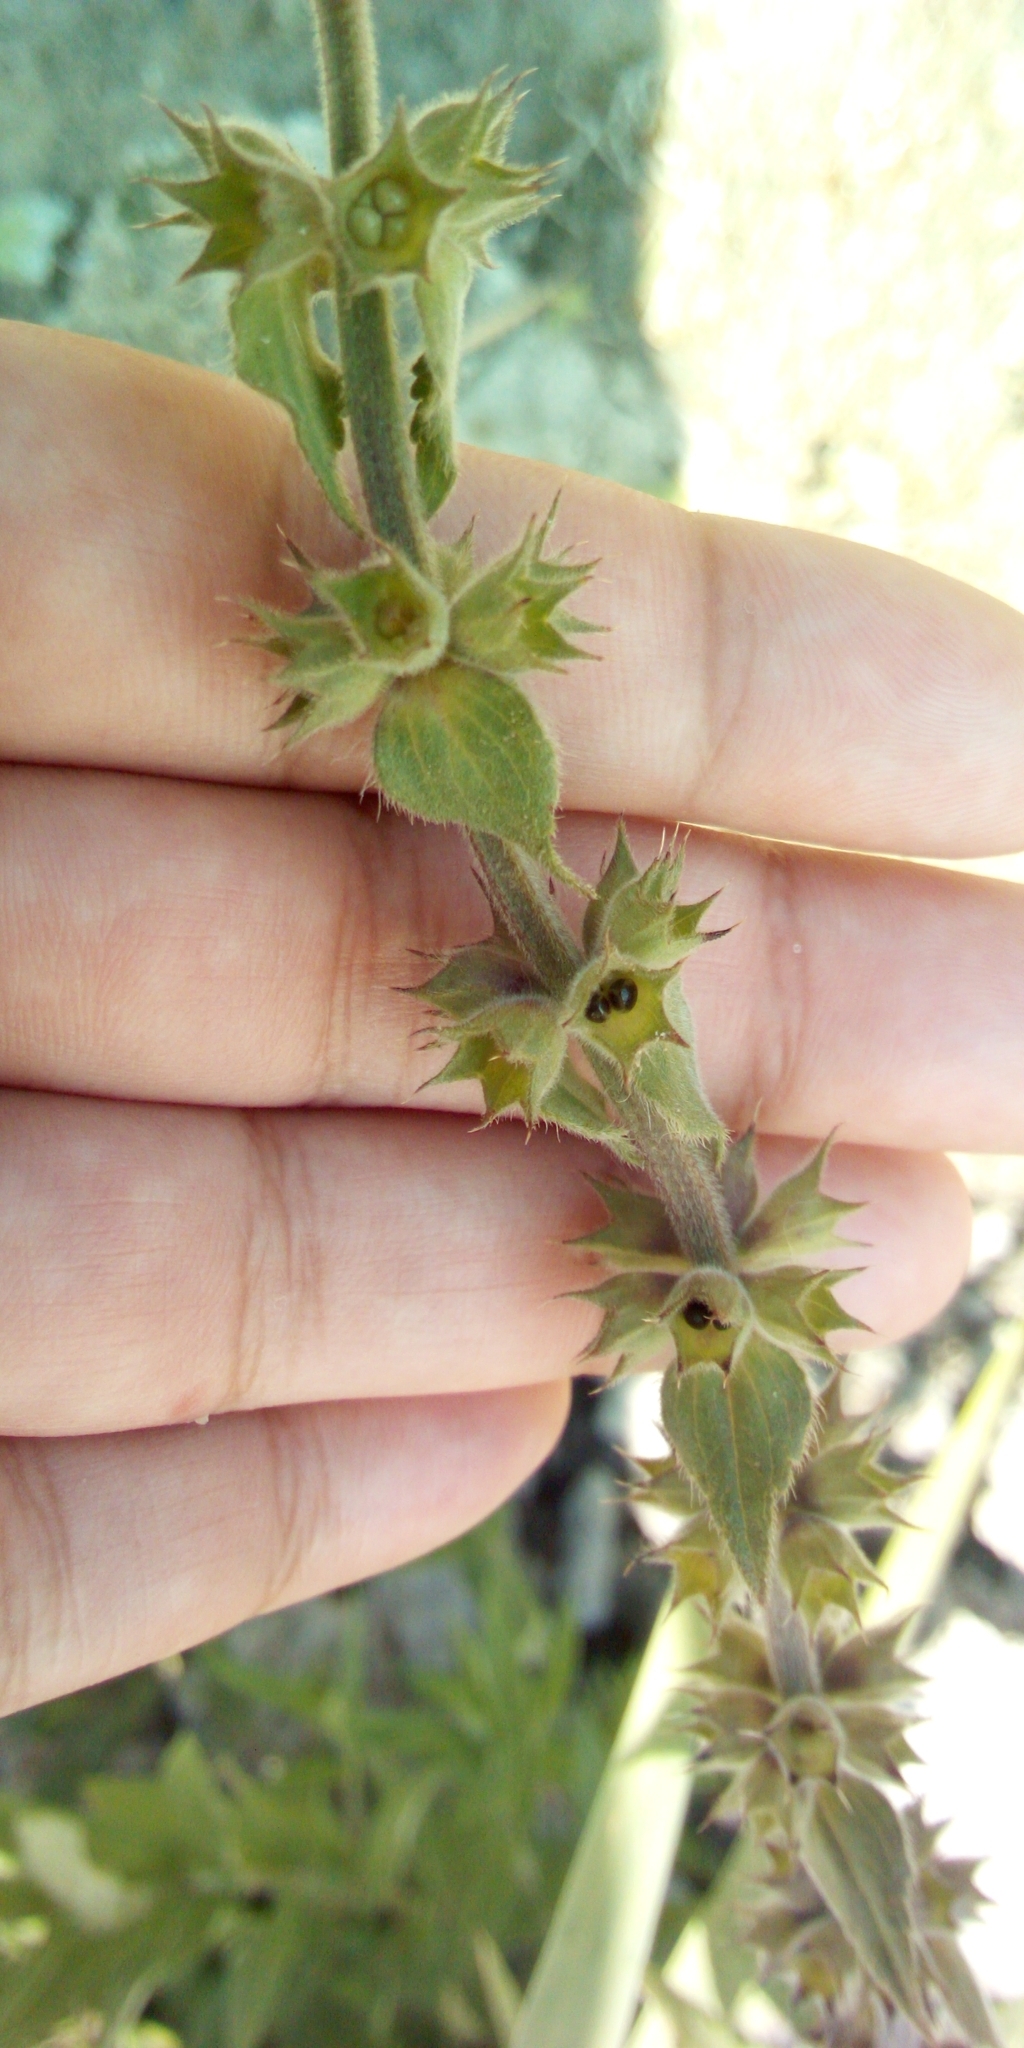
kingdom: Plantae
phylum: Tracheophyta
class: Magnoliopsida
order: Lamiales
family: Lamiaceae
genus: Stachys
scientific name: Stachys palustris
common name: Marsh woundwort
